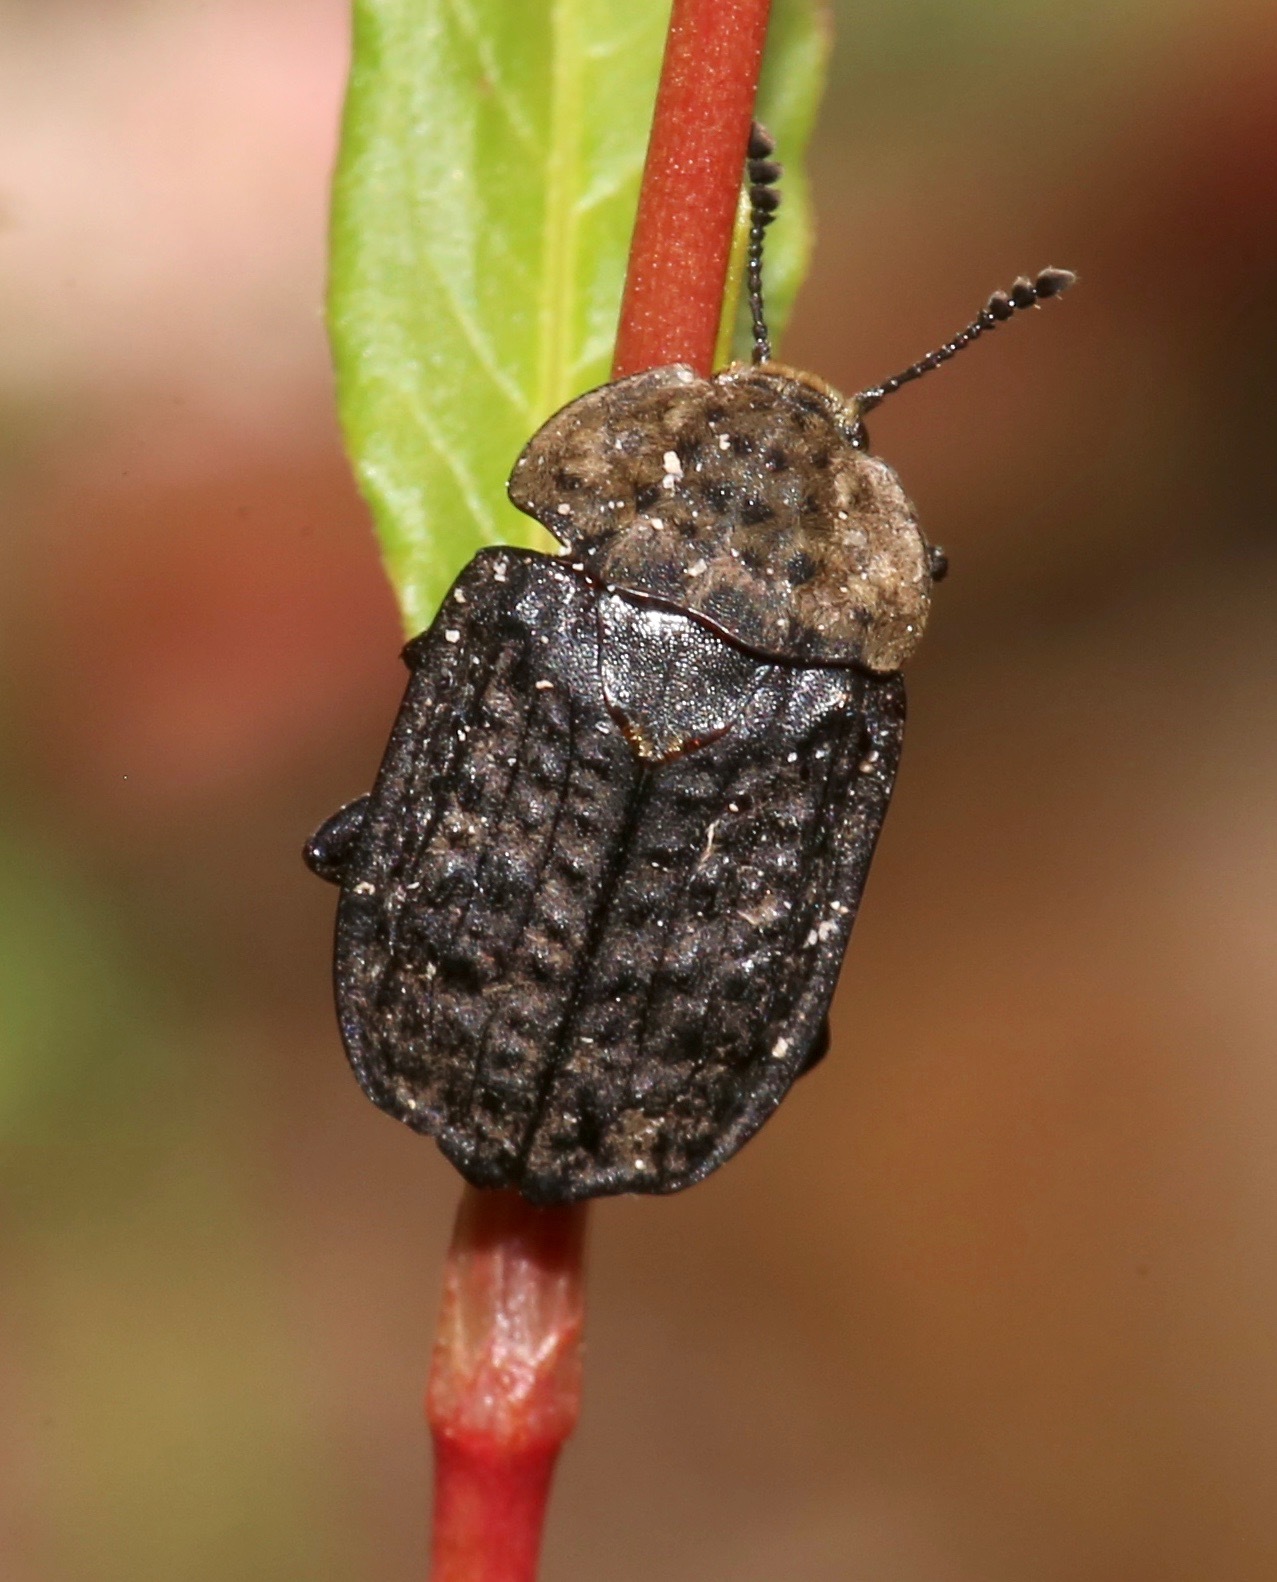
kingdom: Animalia
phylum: Arthropoda
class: Insecta
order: Coleoptera
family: Staphylinidae
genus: Thanatophilus
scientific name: Thanatophilus lapponicus
